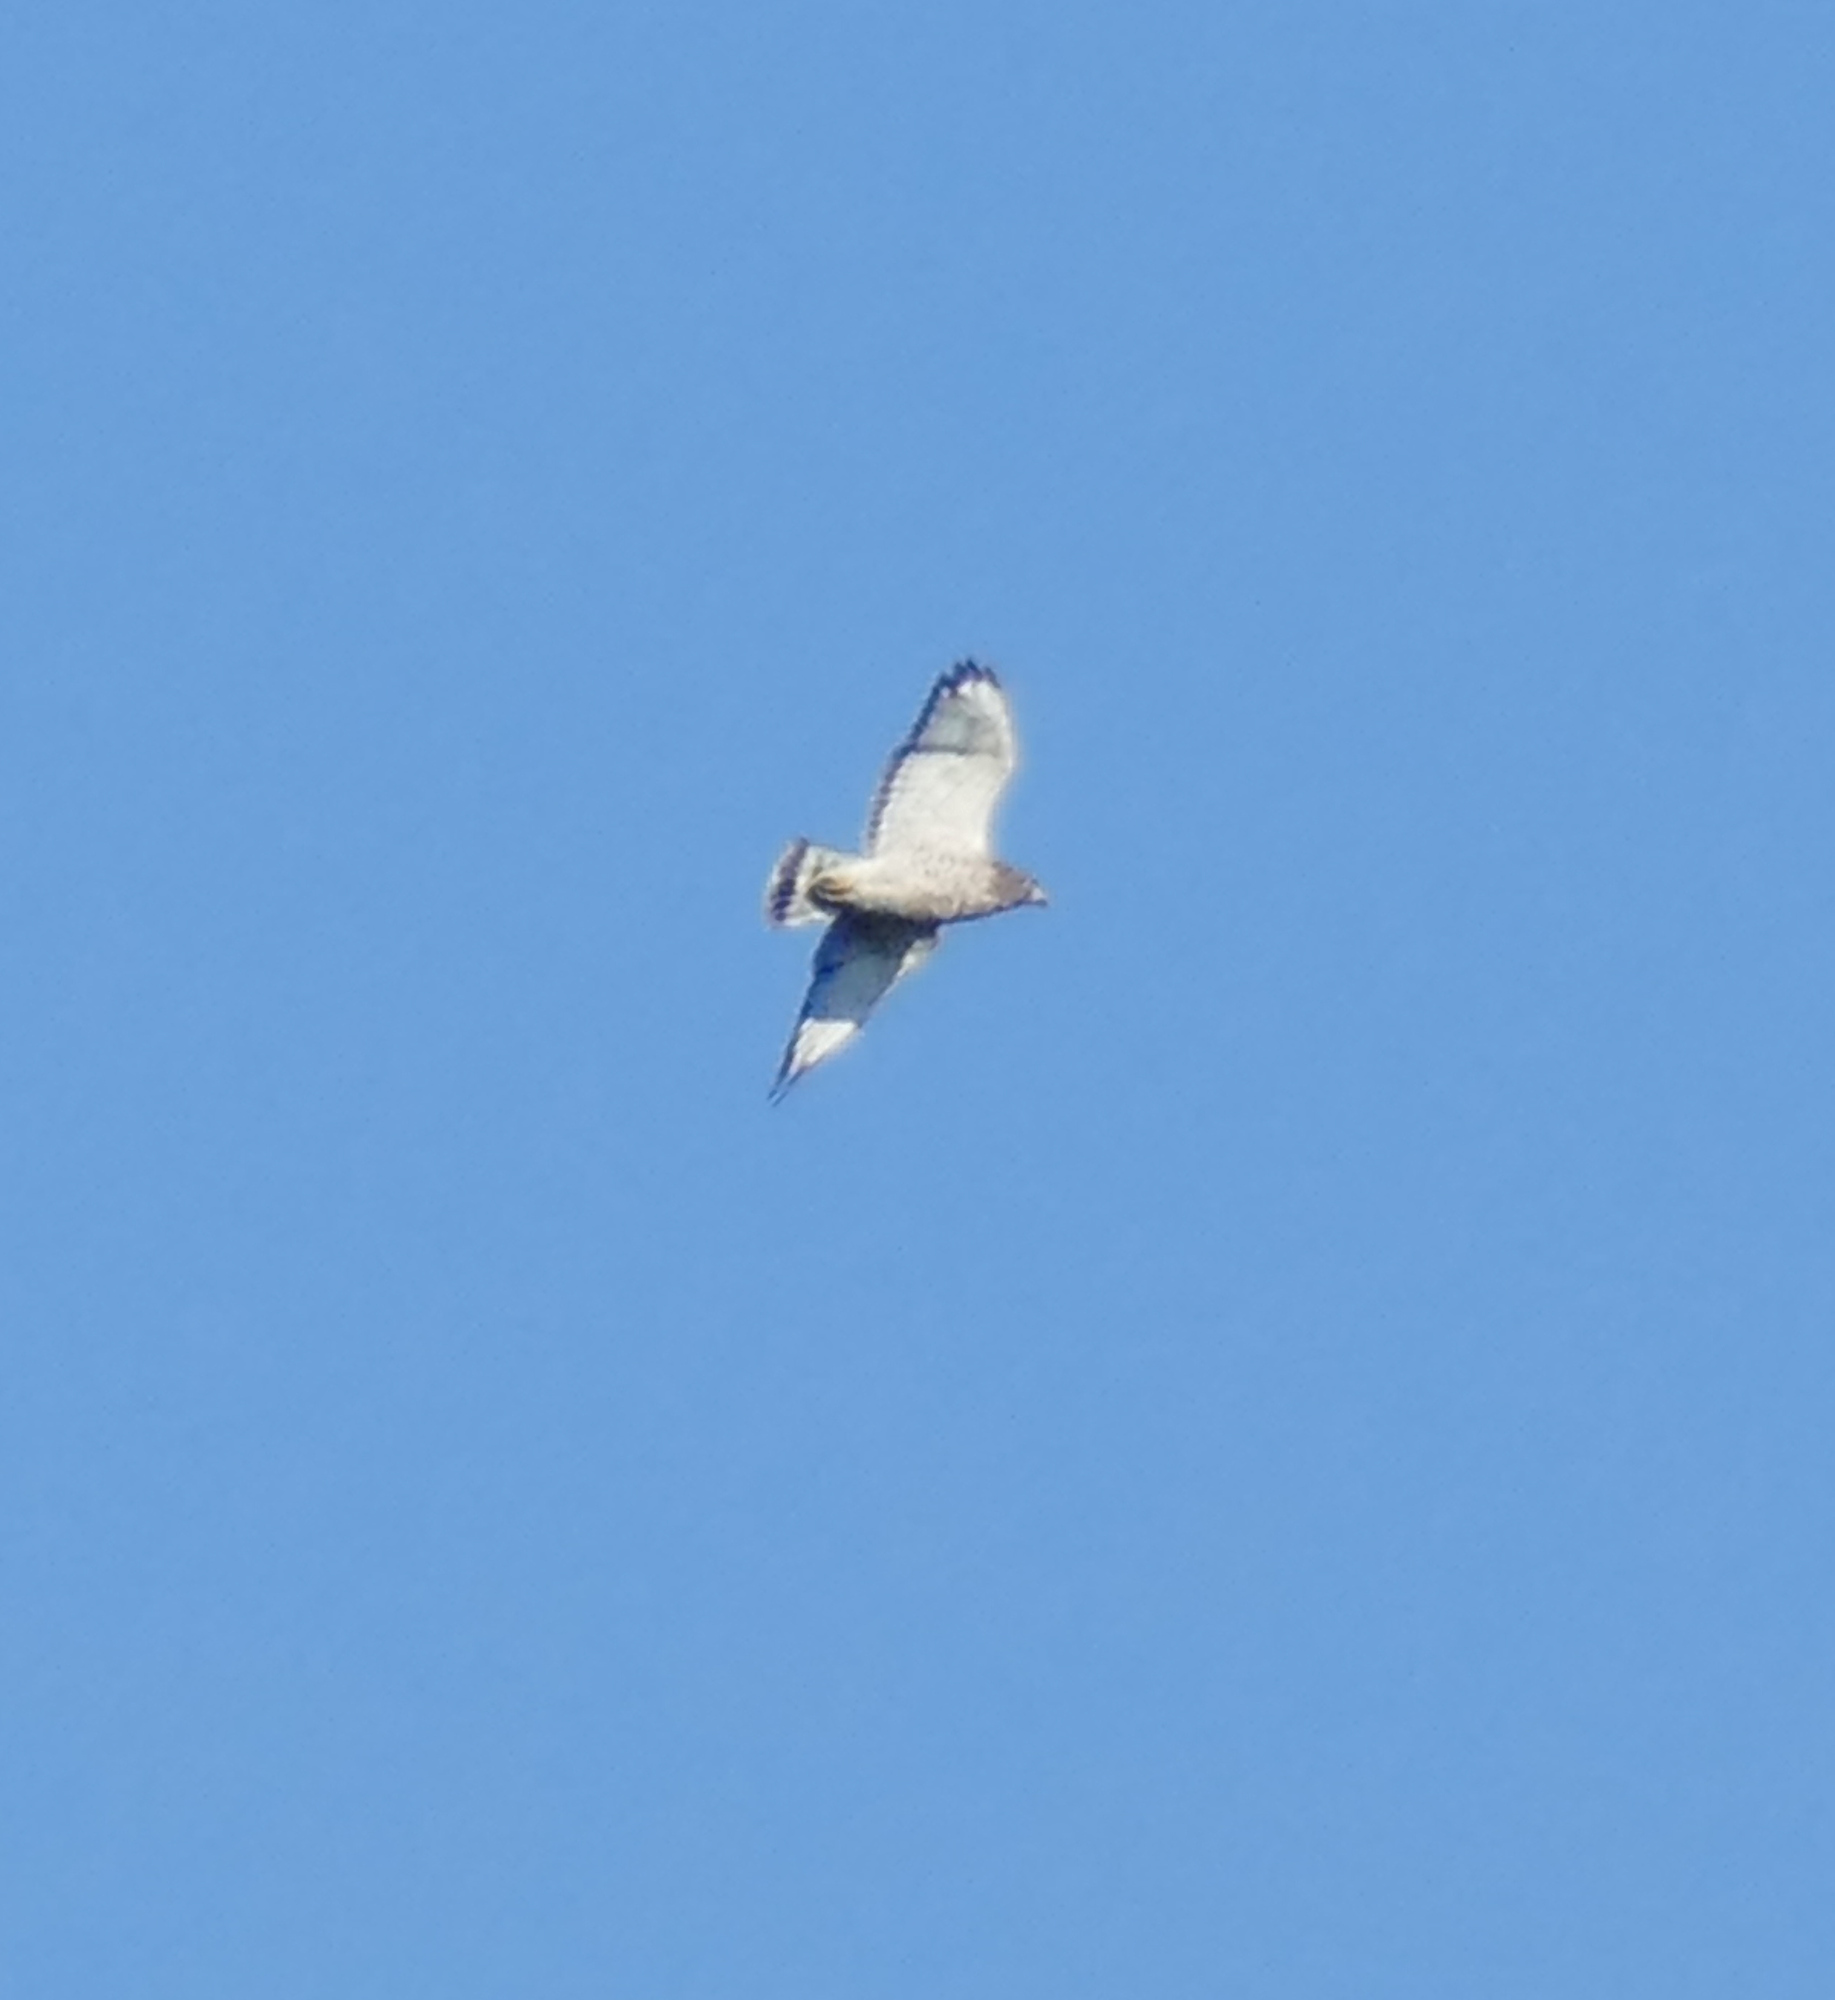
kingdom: Animalia
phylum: Chordata
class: Aves
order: Accipitriformes
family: Accipitridae
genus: Buteo
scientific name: Buteo platypterus
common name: Broad-winged hawk
